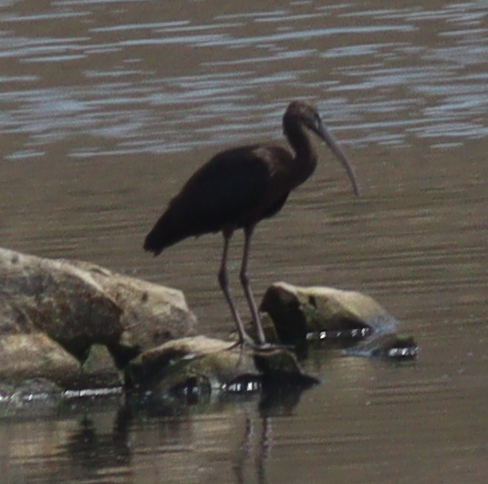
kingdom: Animalia
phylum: Chordata
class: Aves
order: Pelecaniformes
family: Threskiornithidae
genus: Plegadis
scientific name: Plegadis falcinellus
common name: Glossy ibis
